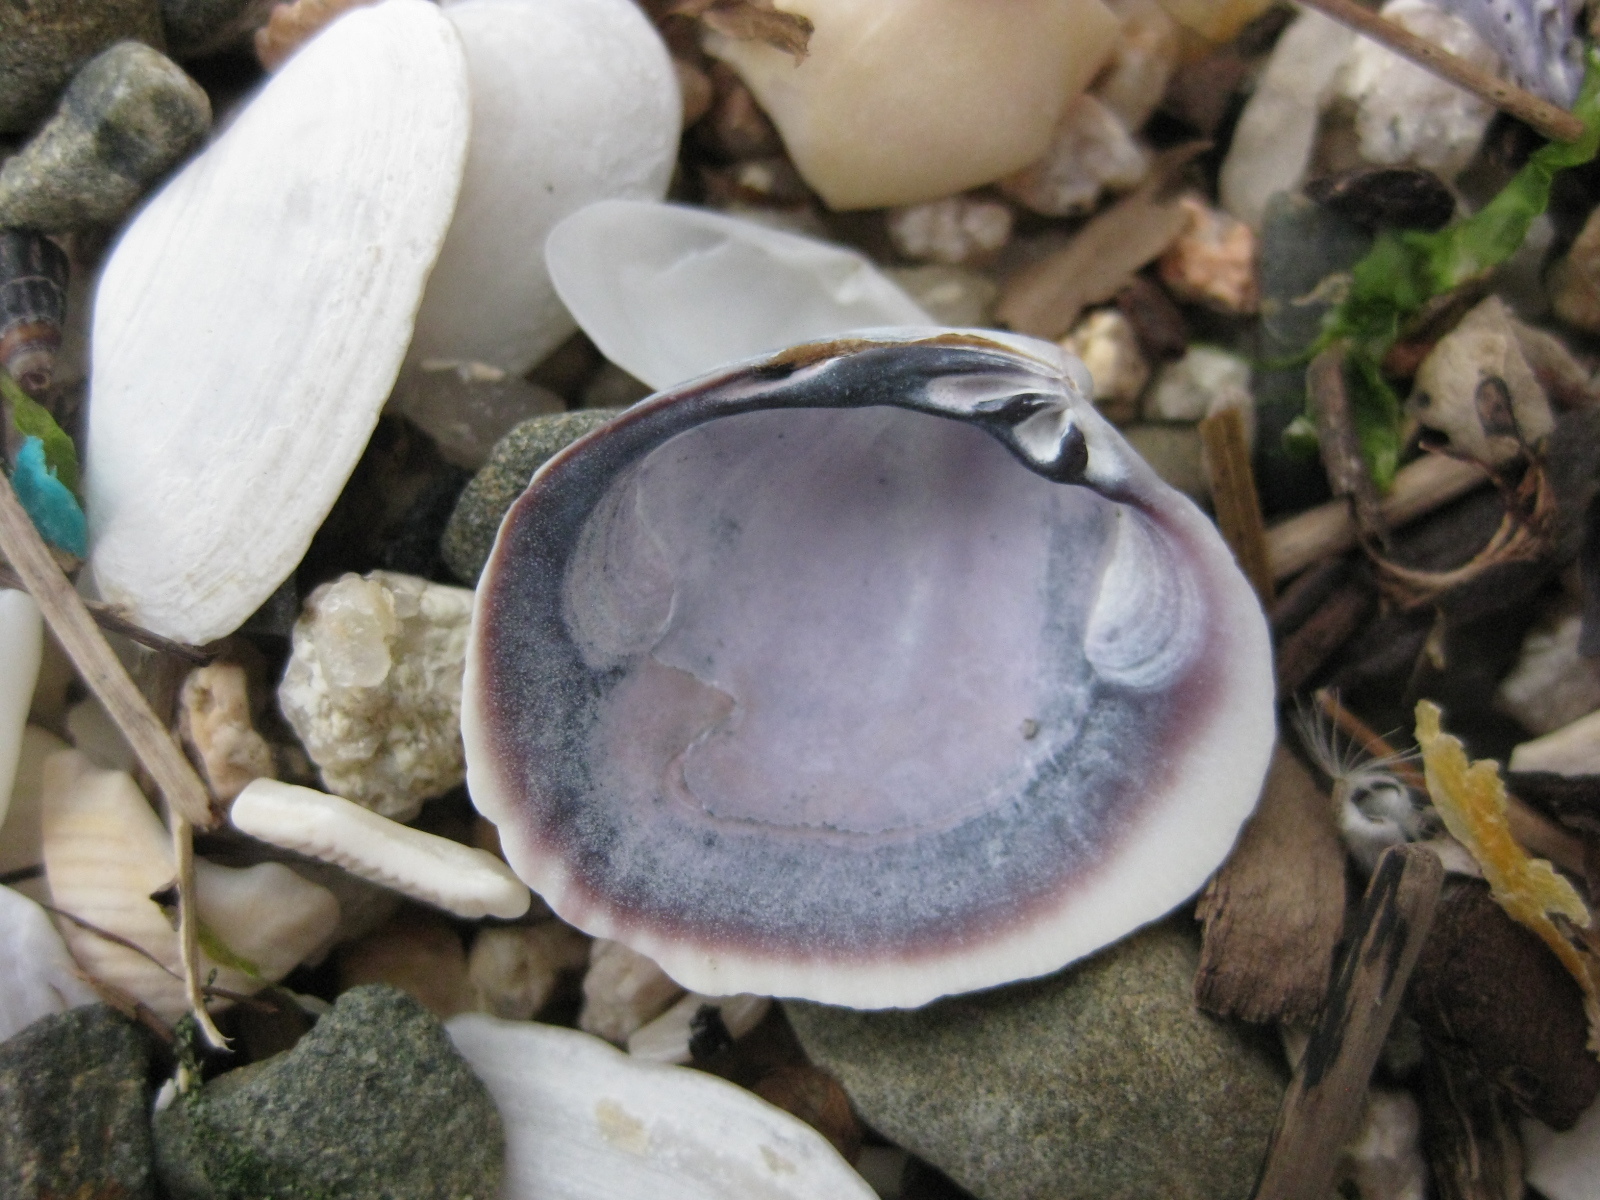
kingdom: Animalia
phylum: Mollusca
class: Bivalvia
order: Venerida
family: Veneridae
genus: Austrovenus
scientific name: Austrovenus stutchburyi
